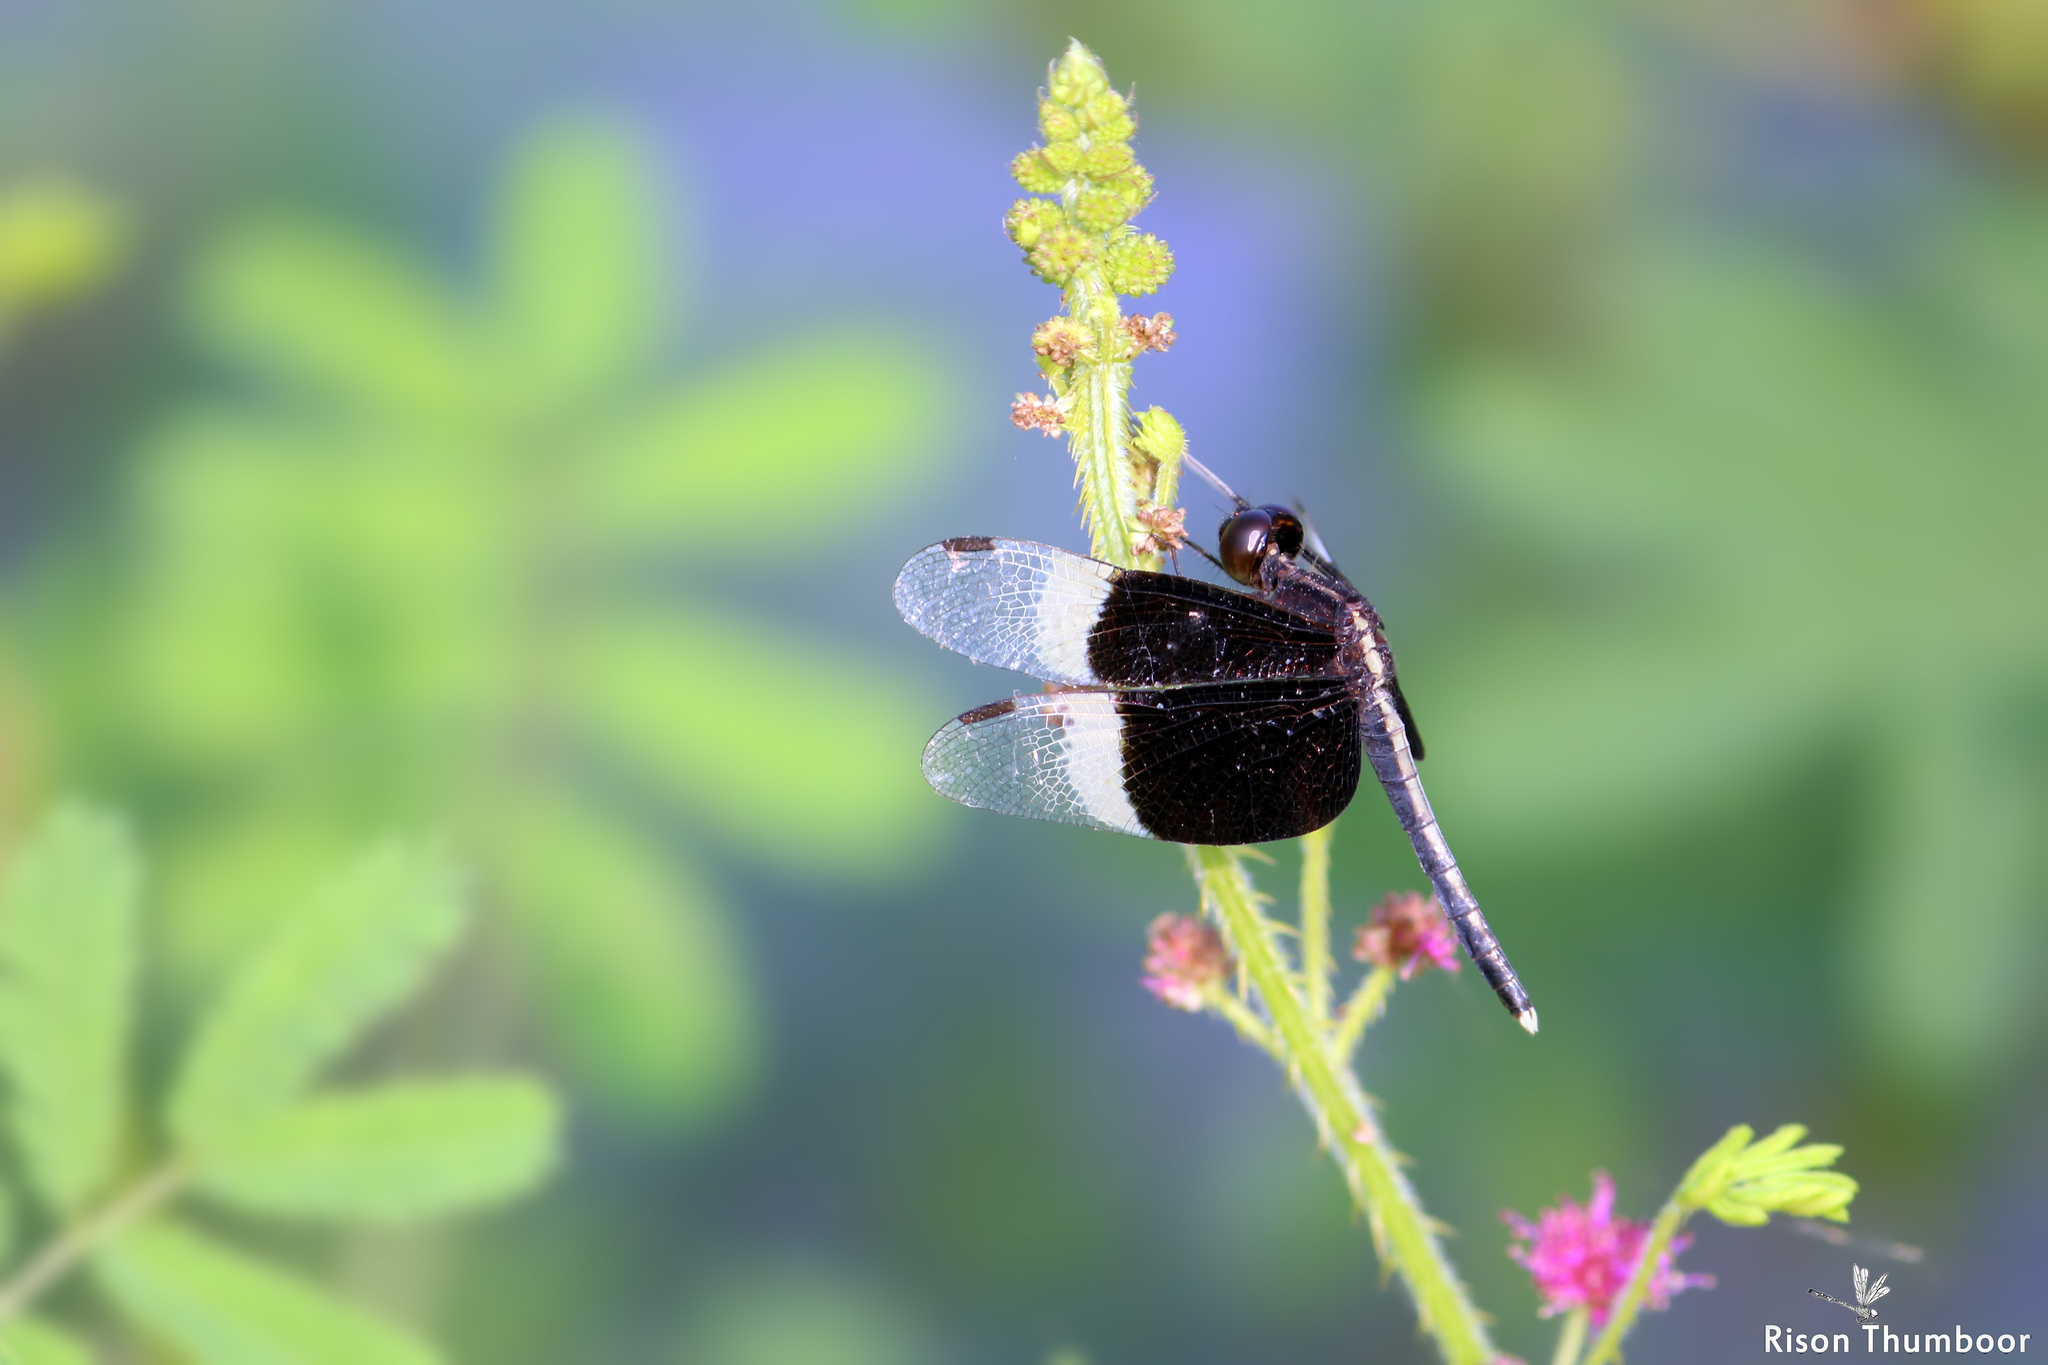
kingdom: Animalia
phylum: Arthropoda
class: Insecta
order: Odonata
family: Libellulidae
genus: Neurothemis
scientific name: Neurothemis tullia
